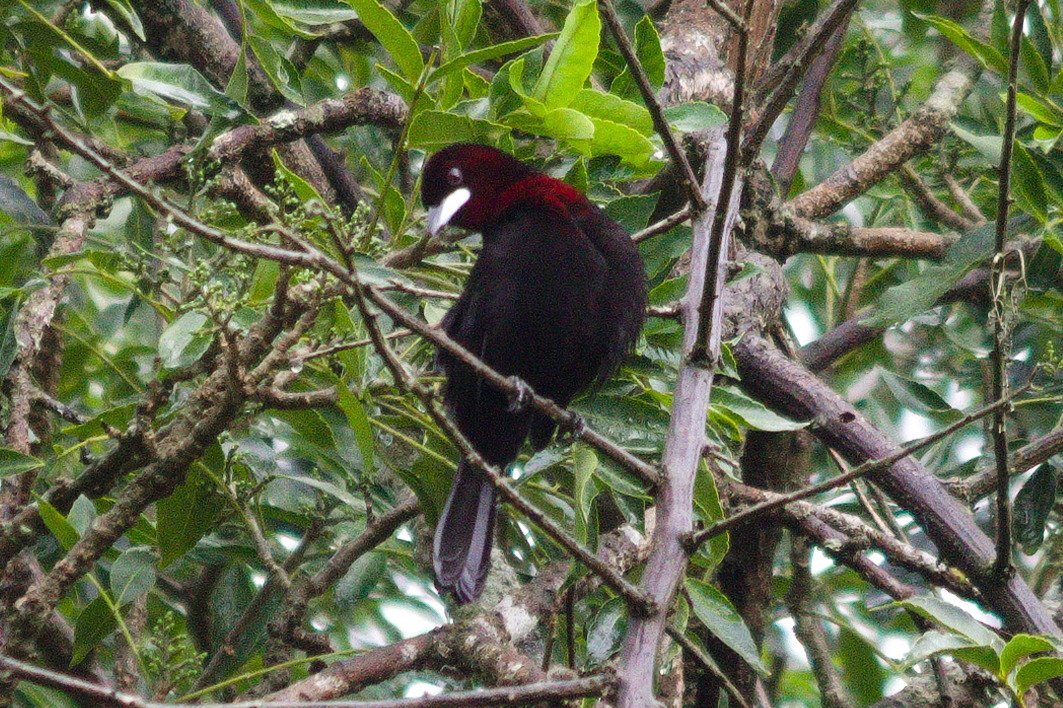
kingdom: Animalia
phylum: Chordata
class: Aves
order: Passeriformes
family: Thraupidae
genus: Ramphocelus
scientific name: Ramphocelus carbo
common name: Silver-beaked tanager
